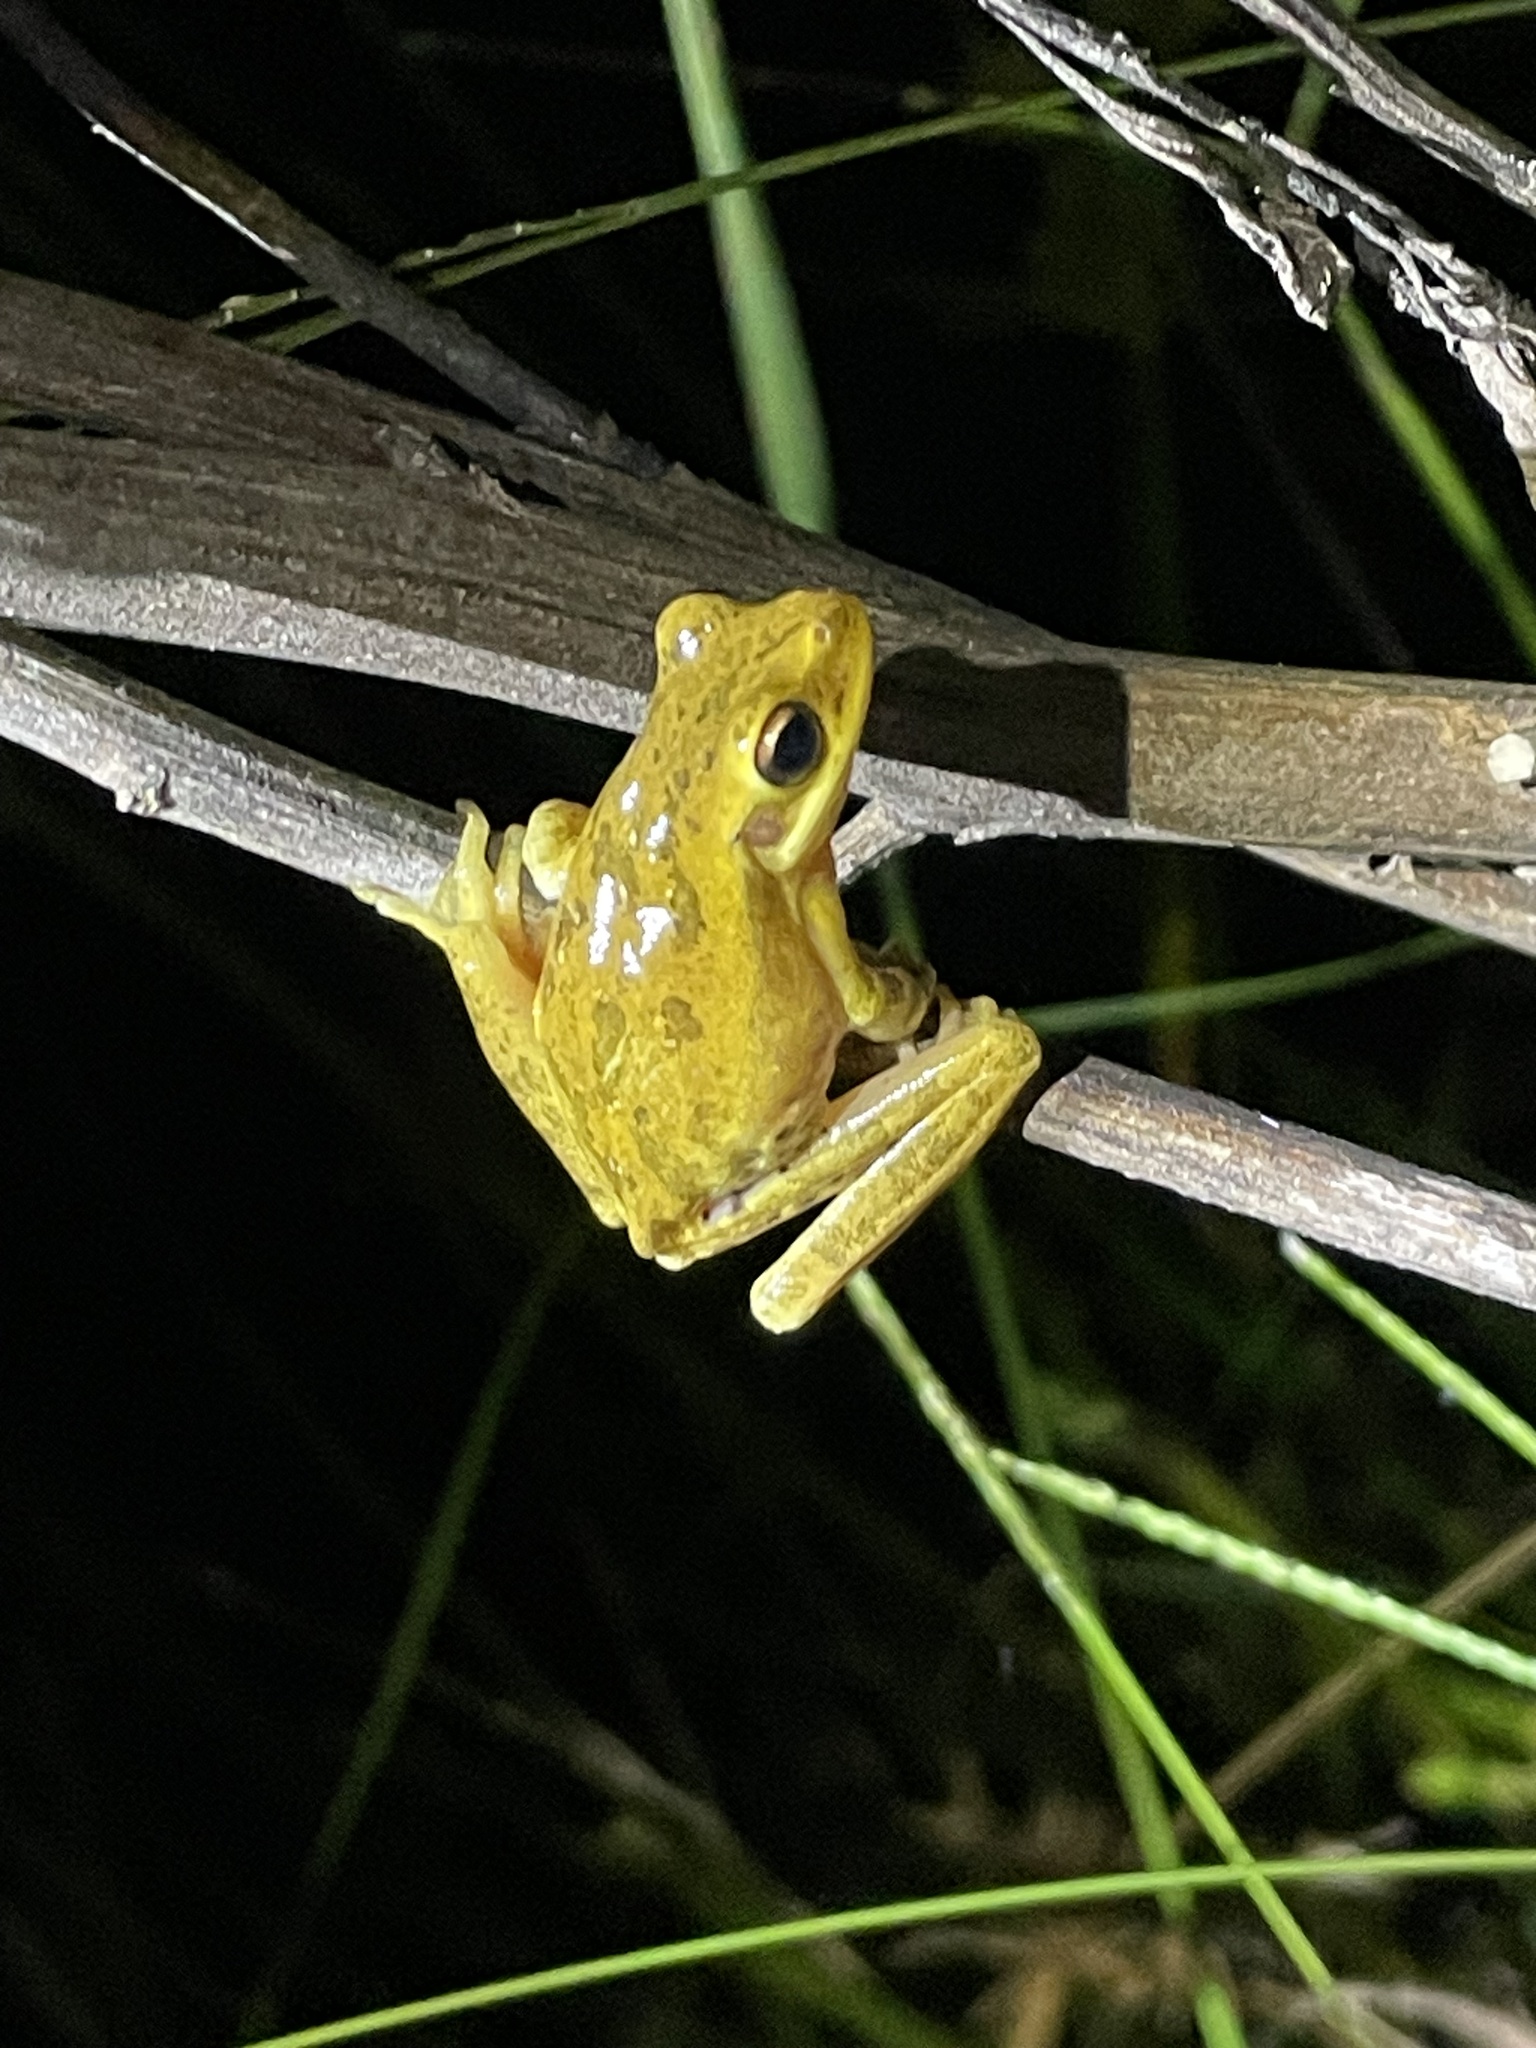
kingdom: Animalia
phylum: Chordata
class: Amphibia
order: Anura
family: Hylidae
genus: Boana
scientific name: Boana pulchella
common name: Montevideo treefrog
